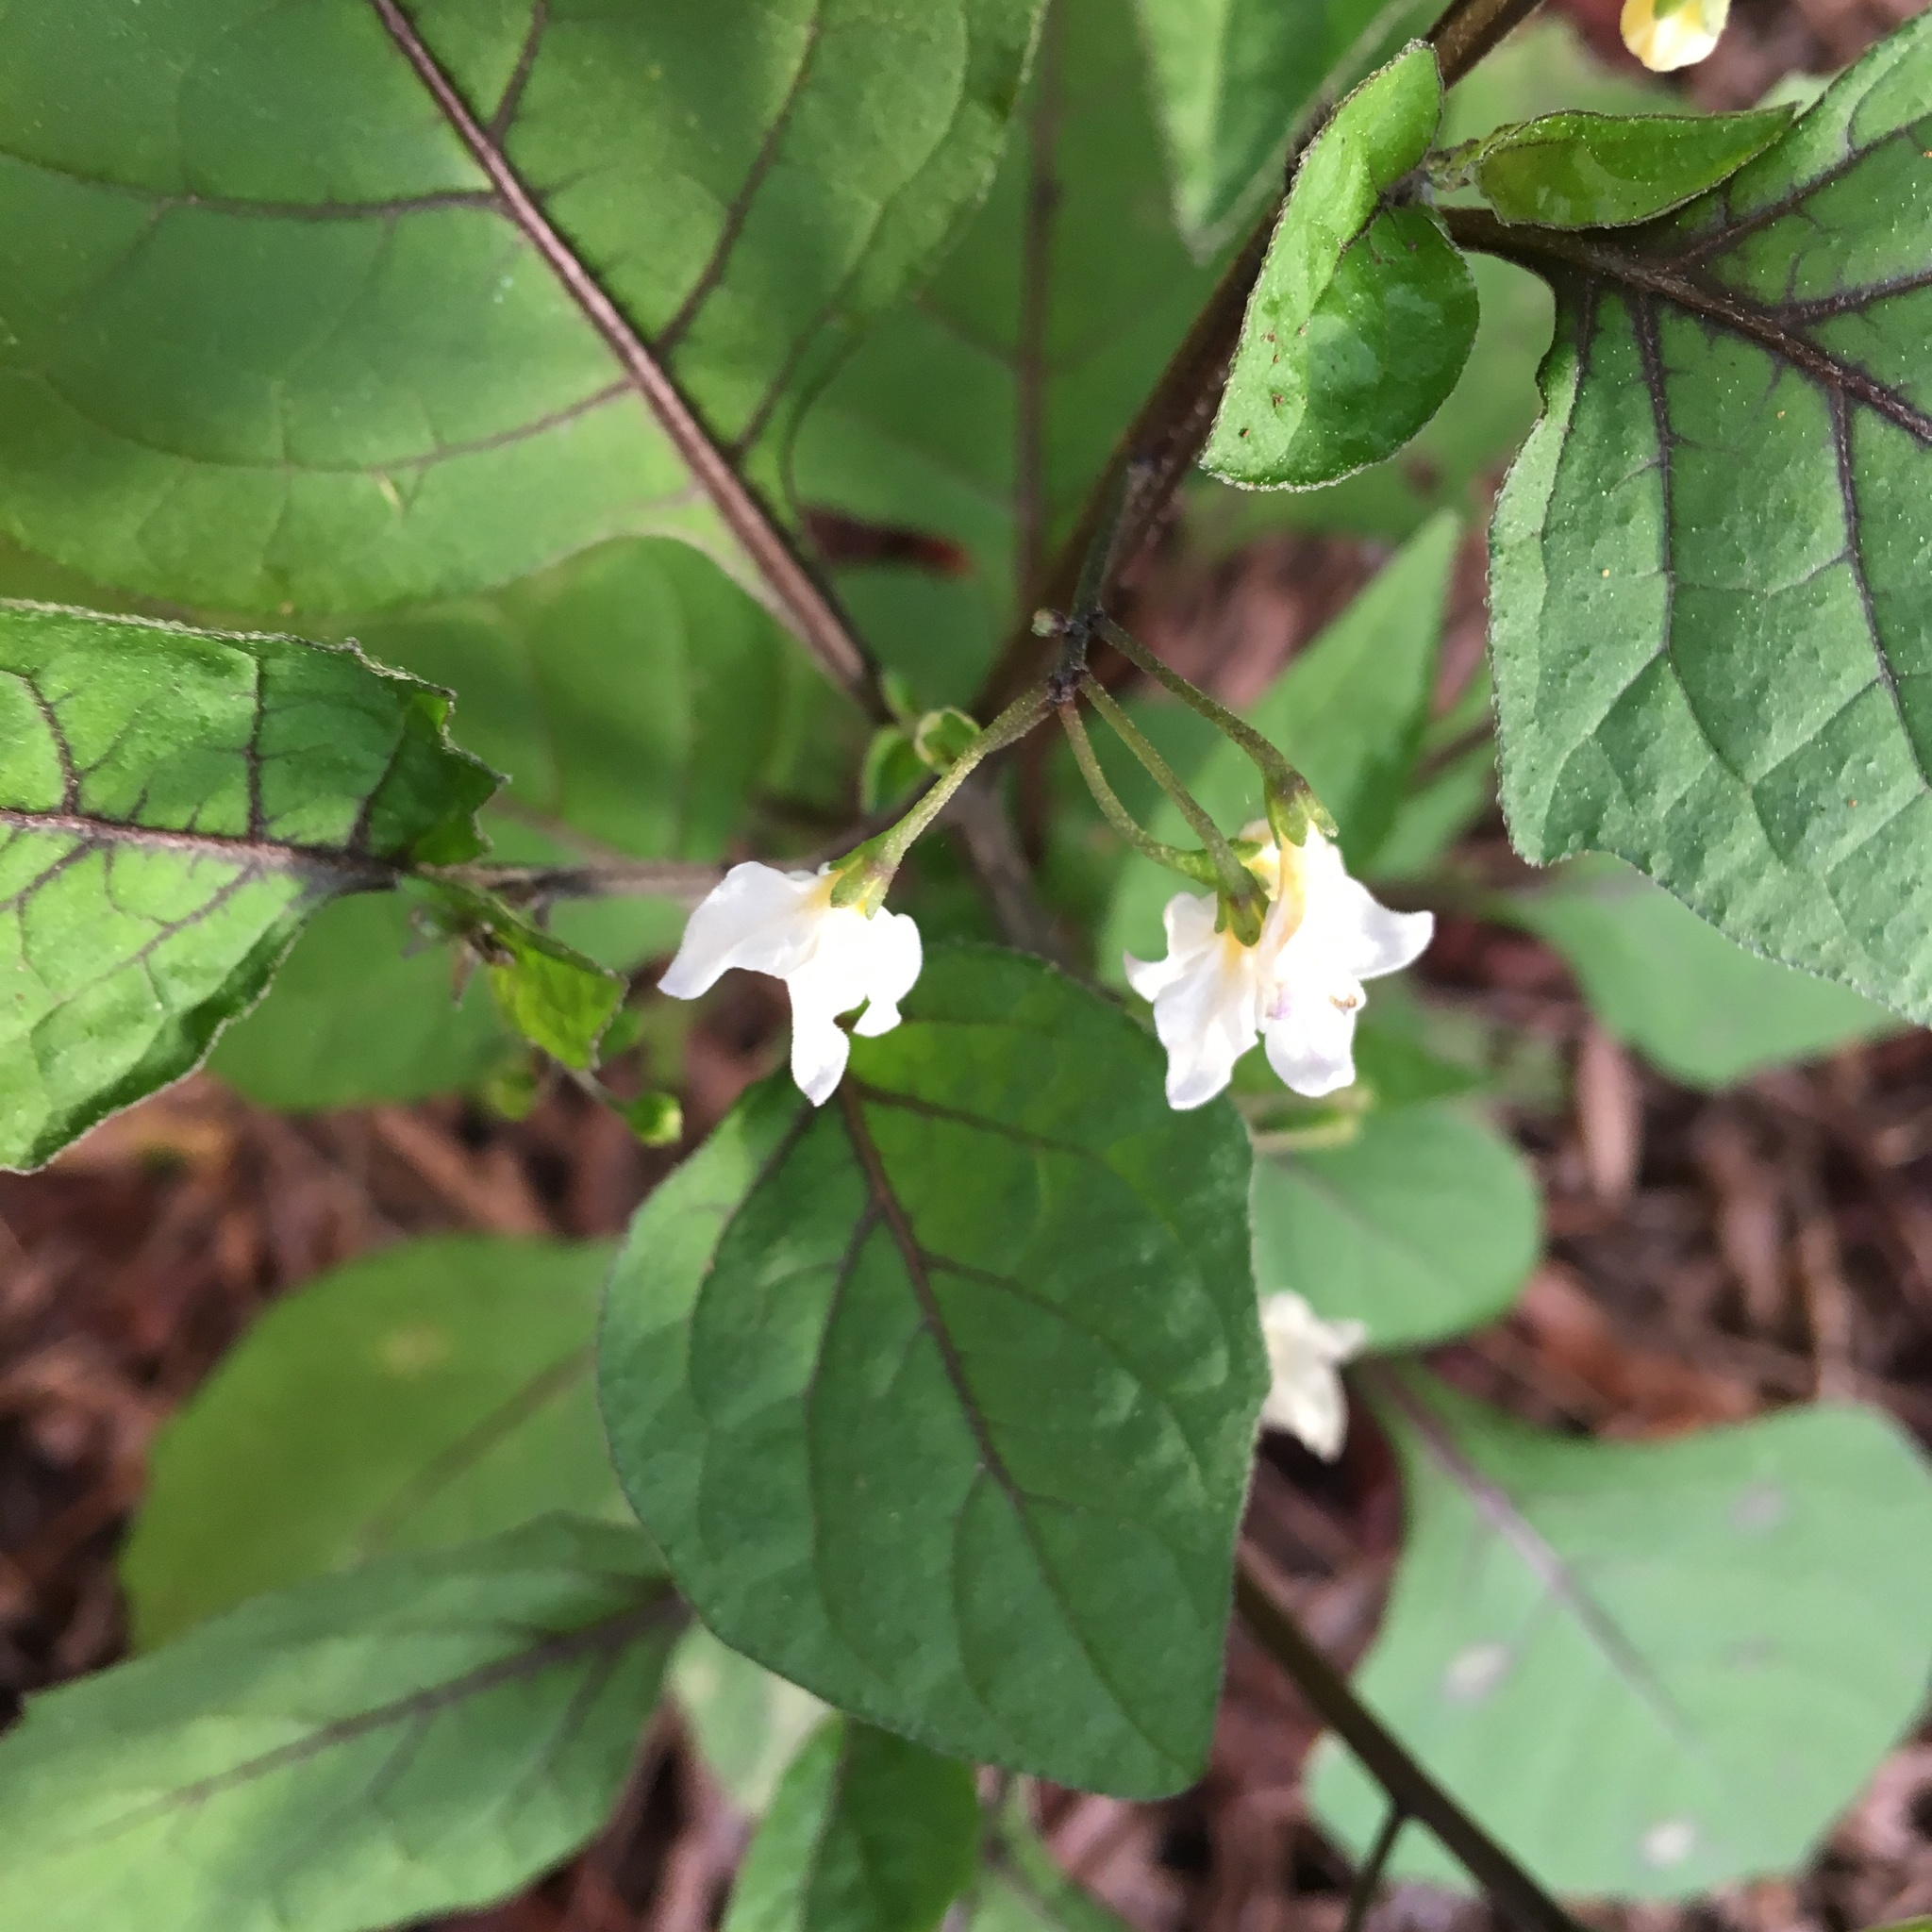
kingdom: Plantae
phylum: Tracheophyta
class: Magnoliopsida
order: Solanales
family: Solanaceae
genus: Solanum
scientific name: Solanum nigrum
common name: Black nightshade
